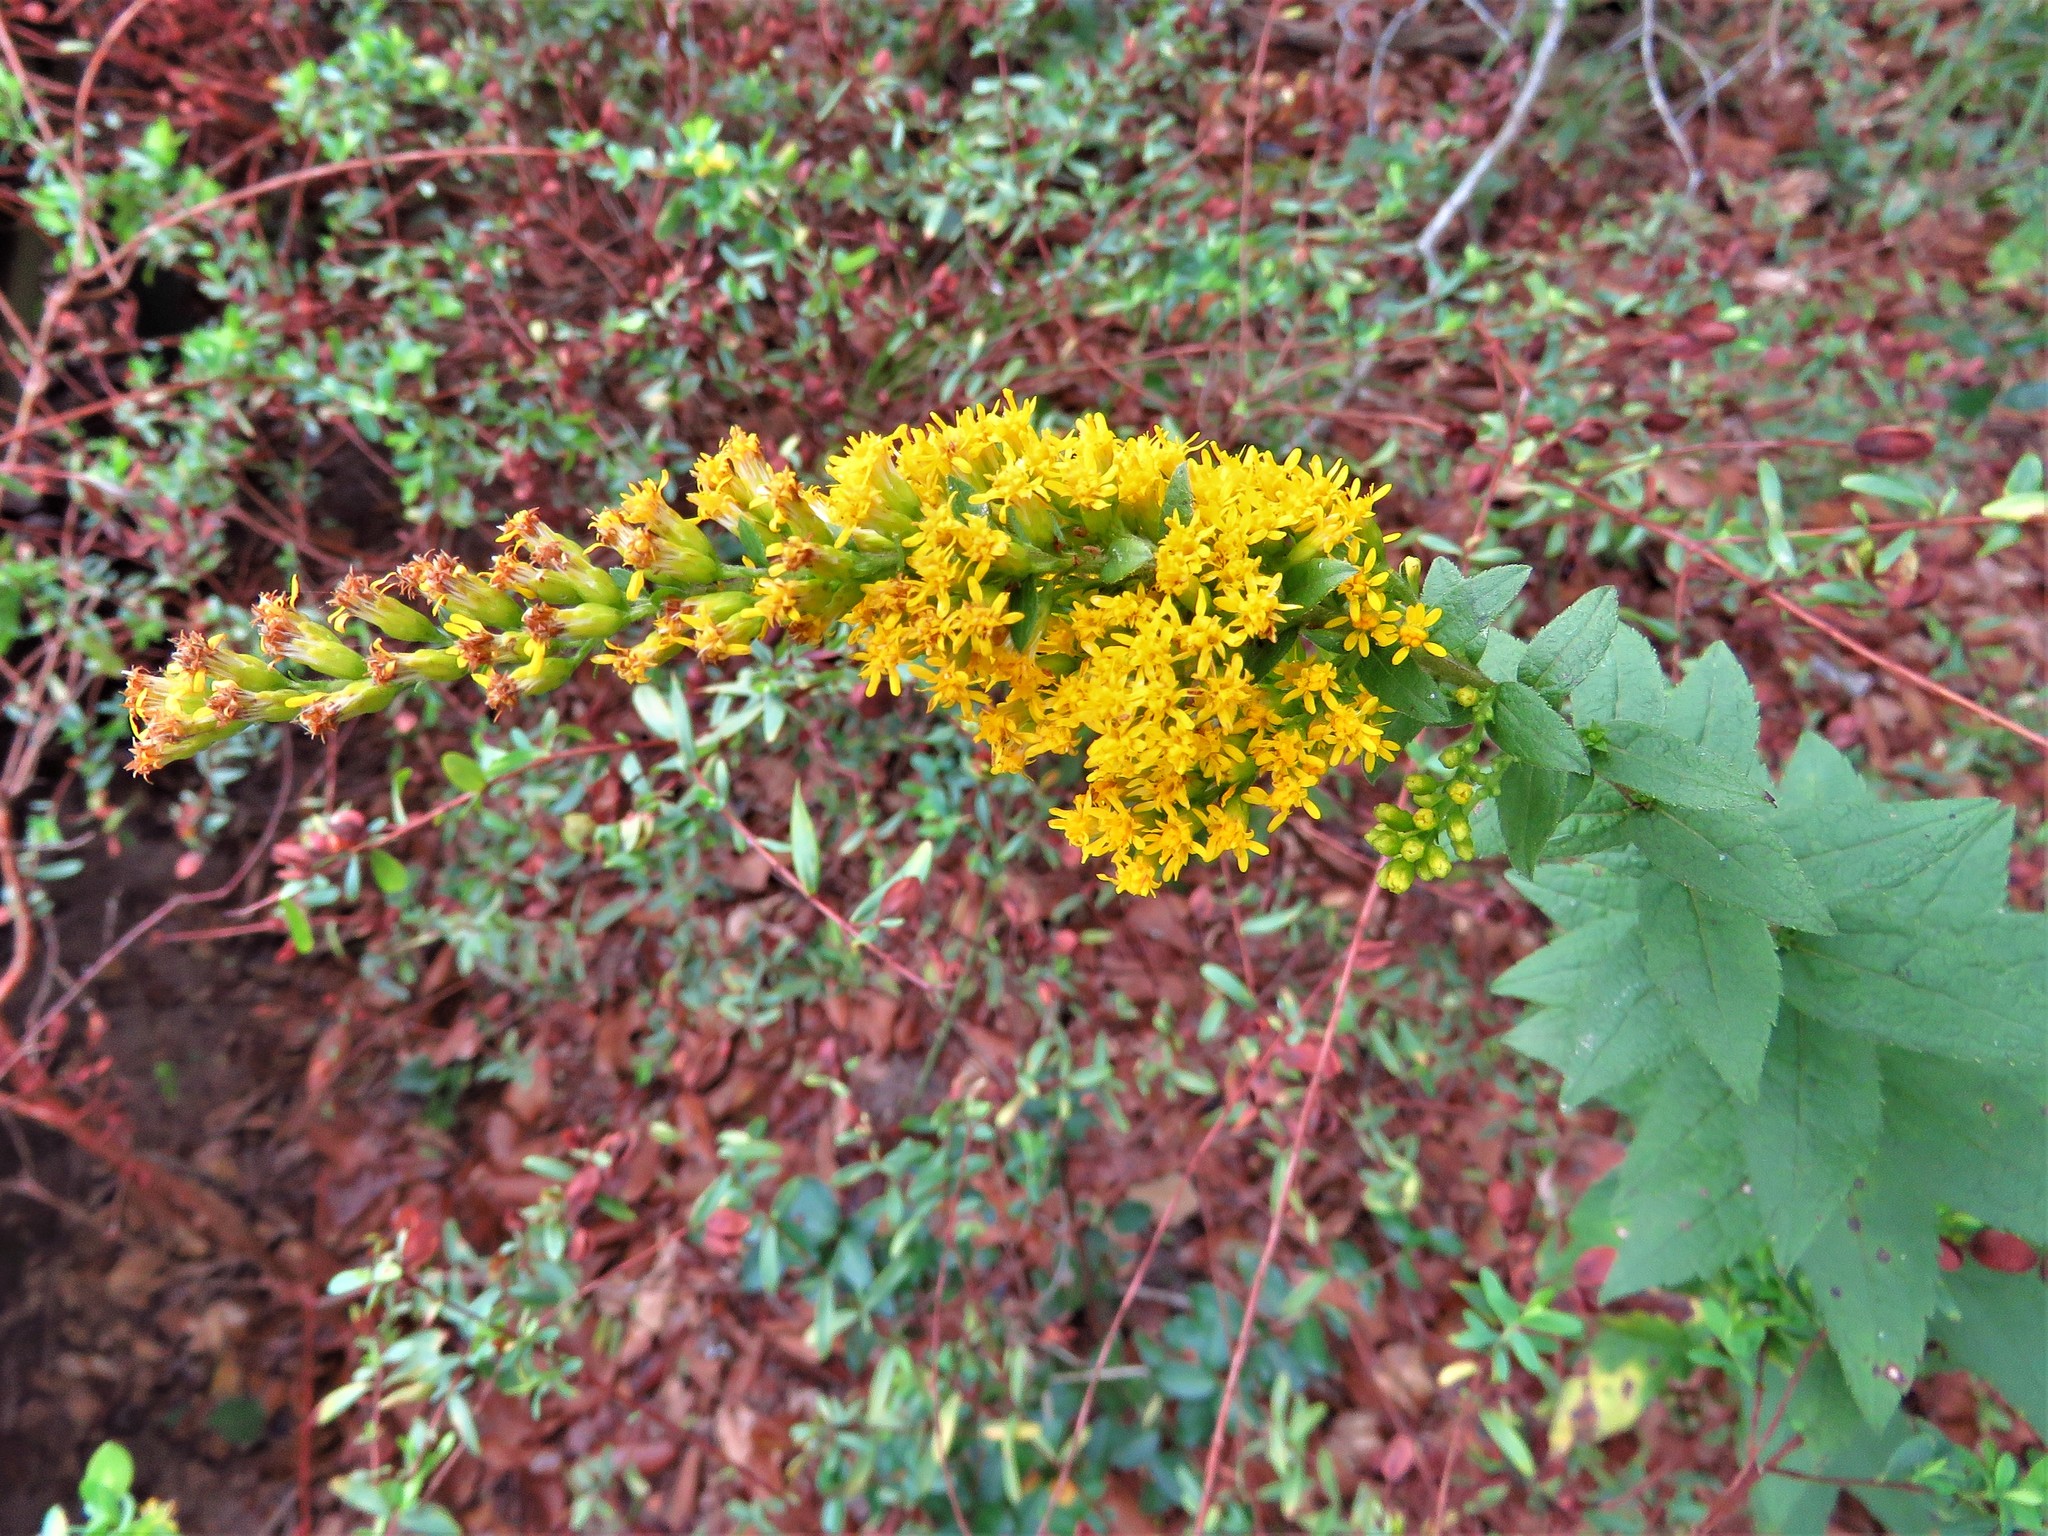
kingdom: Plantae
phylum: Tracheophyta
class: Magnoliopsida
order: Asterales
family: Asteraceae
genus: Solidago
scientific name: Solidago rugosa
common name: Rough-stemmed goldenrod
